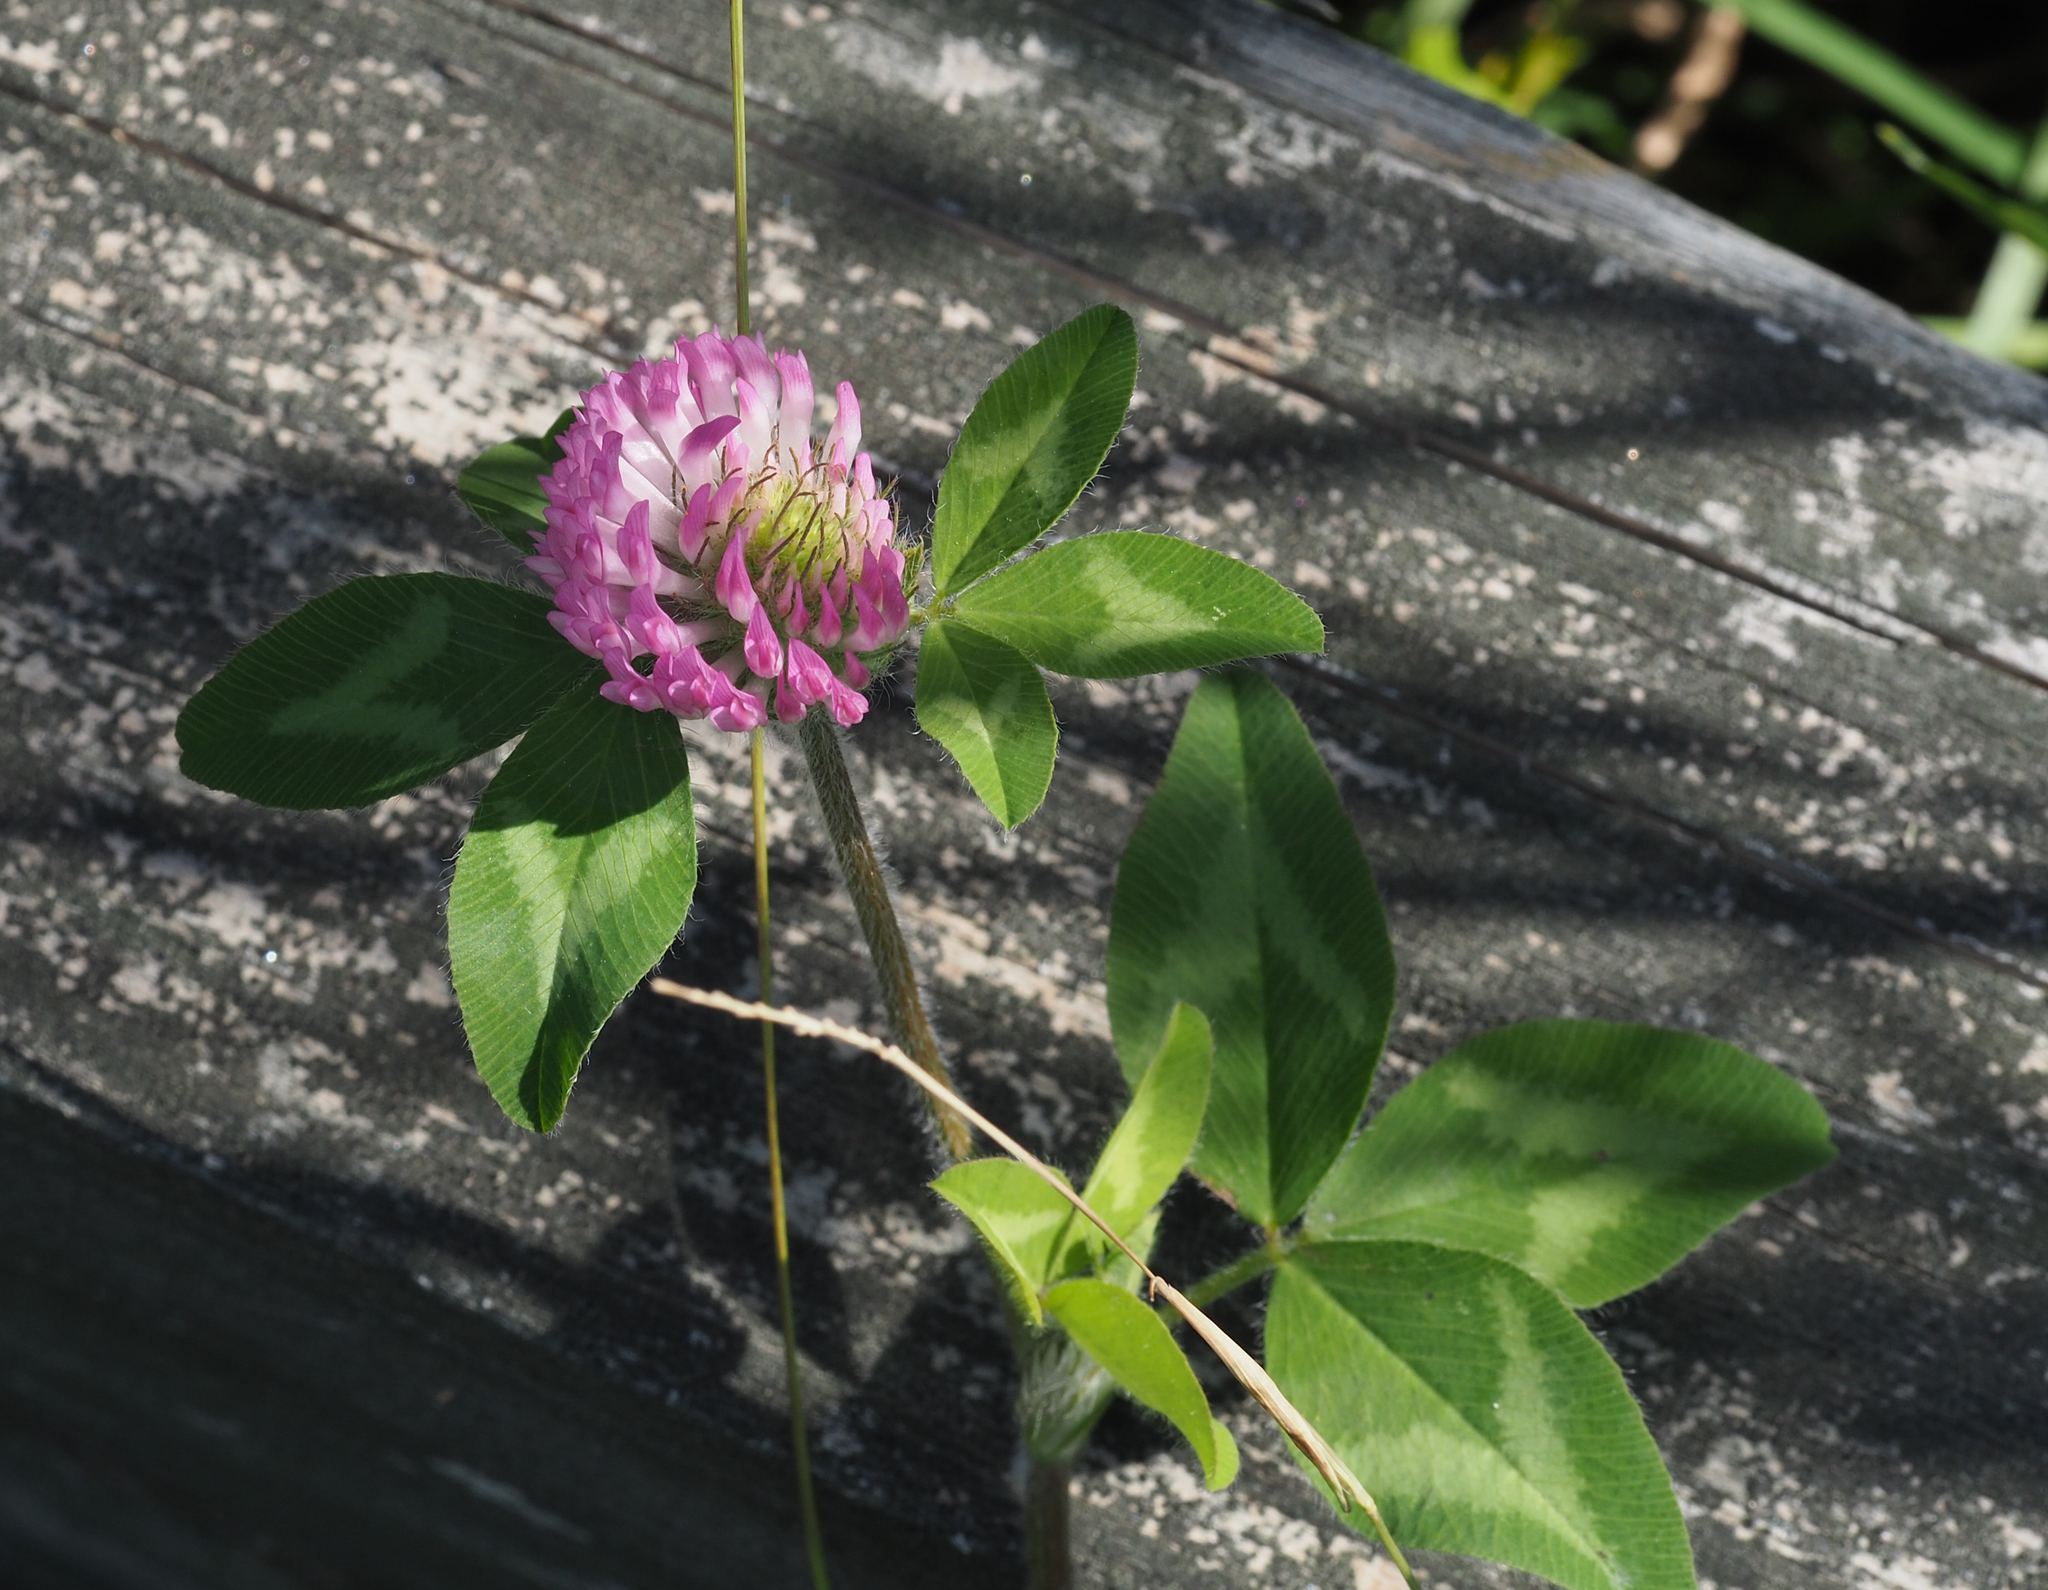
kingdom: Plantae
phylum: Tracheophyta
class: Magnoliopsida
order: Fabales
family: Fabaceae
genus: Trifolium
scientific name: Trifolium pratense
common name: Red clover
